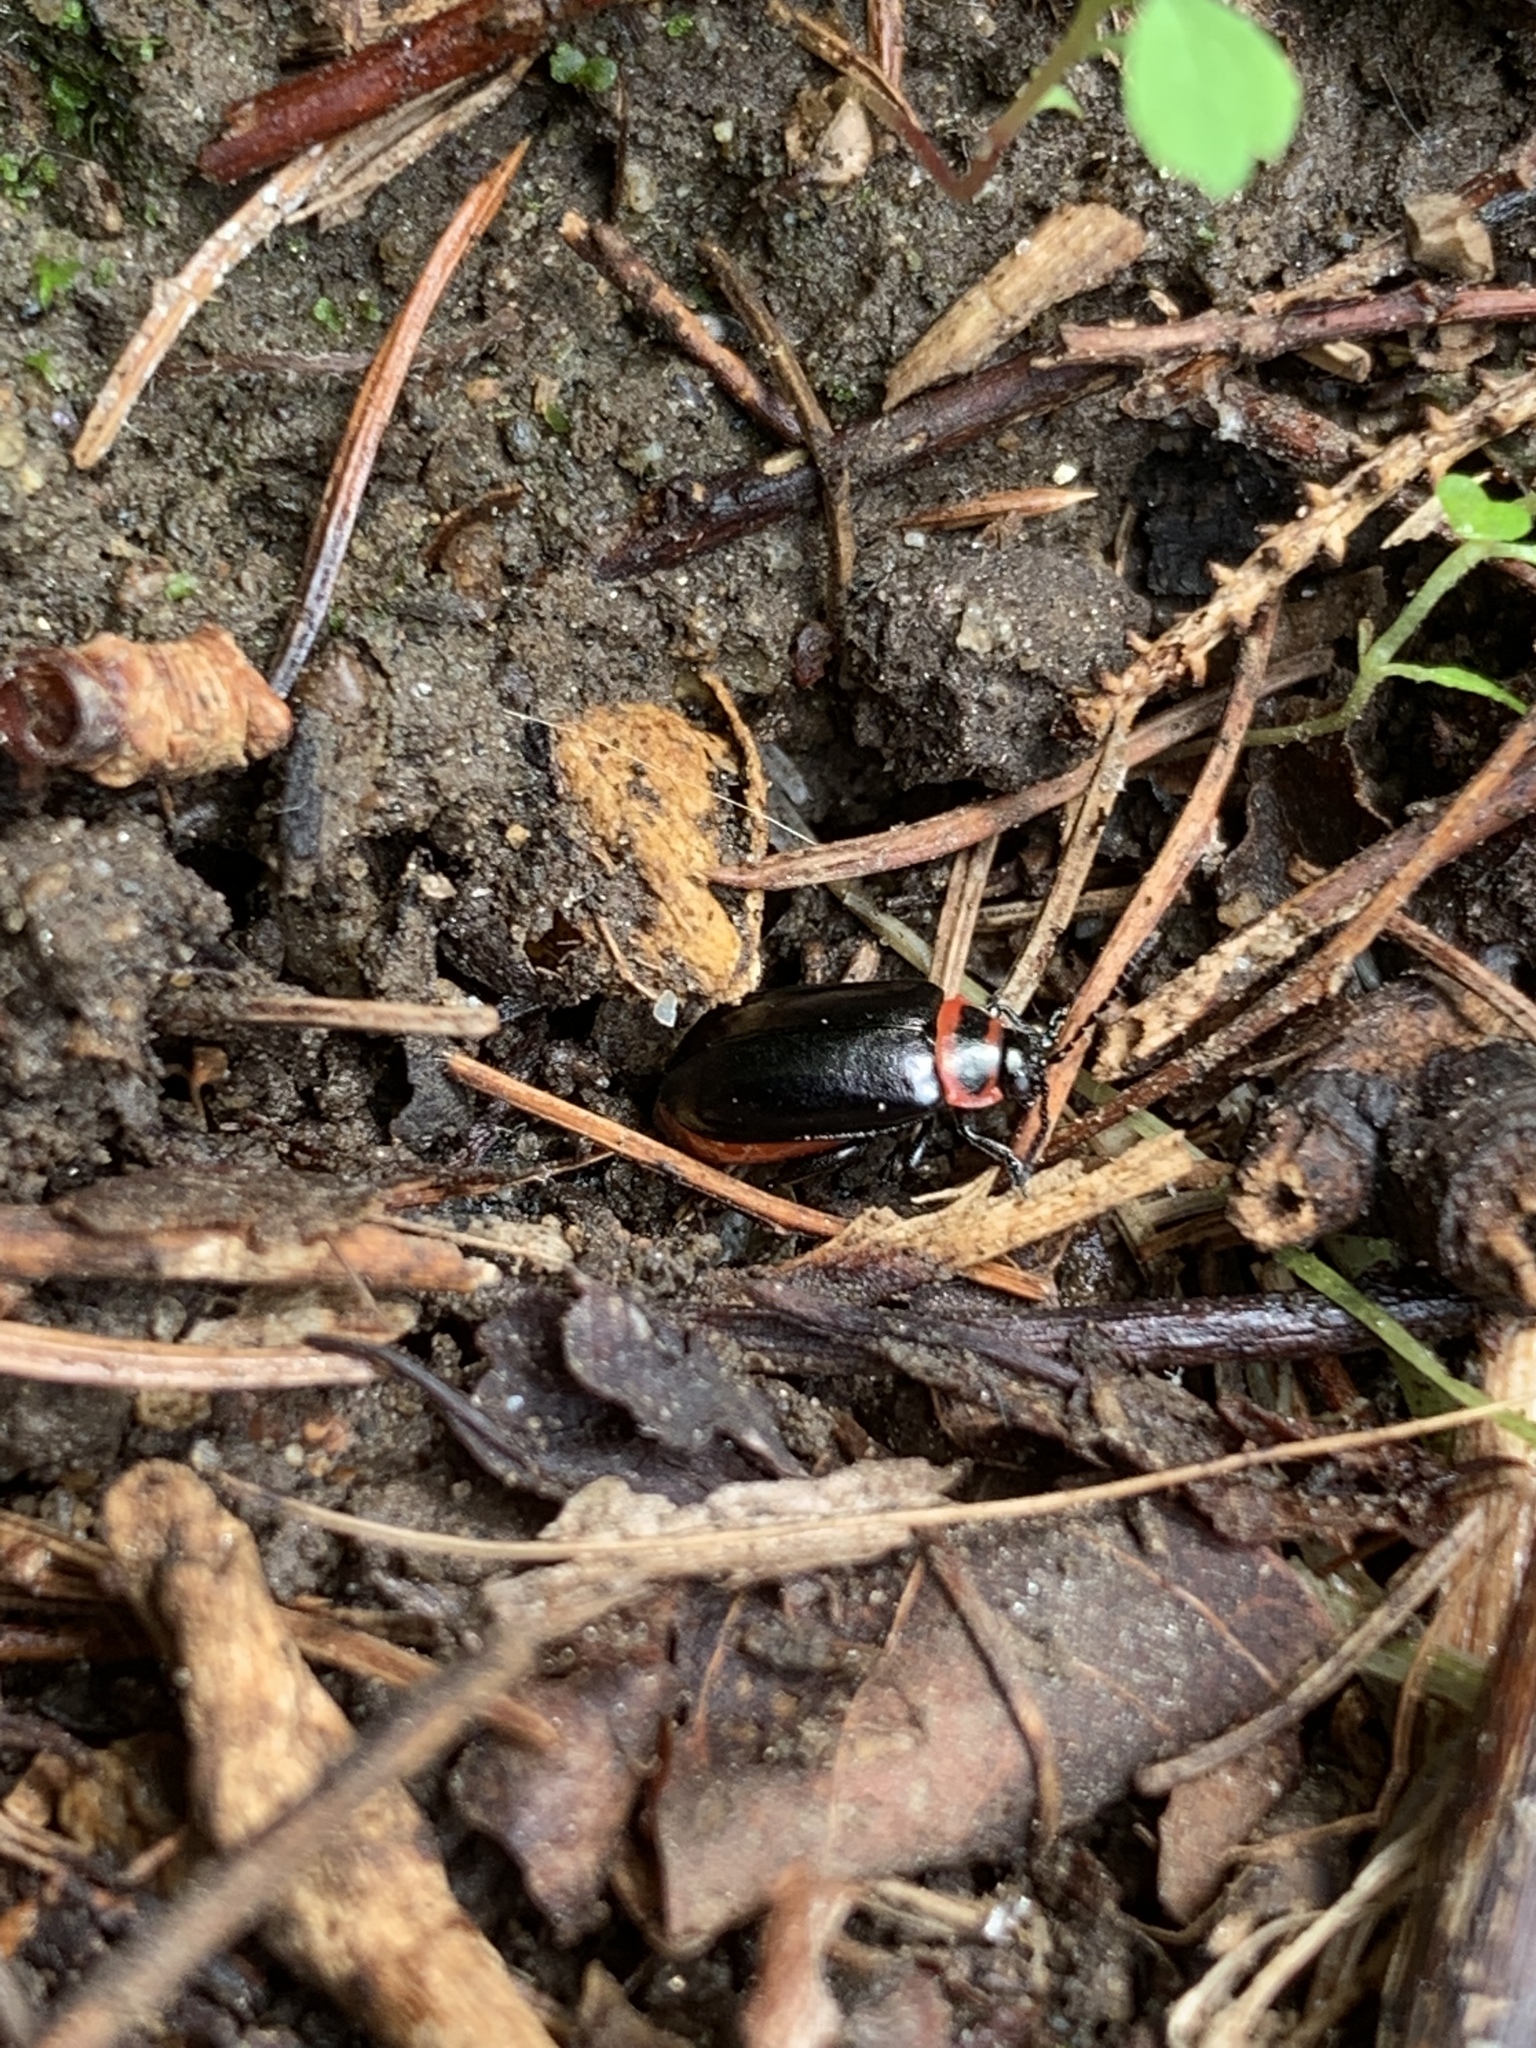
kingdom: Animalia
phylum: Arthropoda
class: Insecta
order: Coleoptera
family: Chrysomelidae
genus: Kuschelina
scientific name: Kuschelina vians
